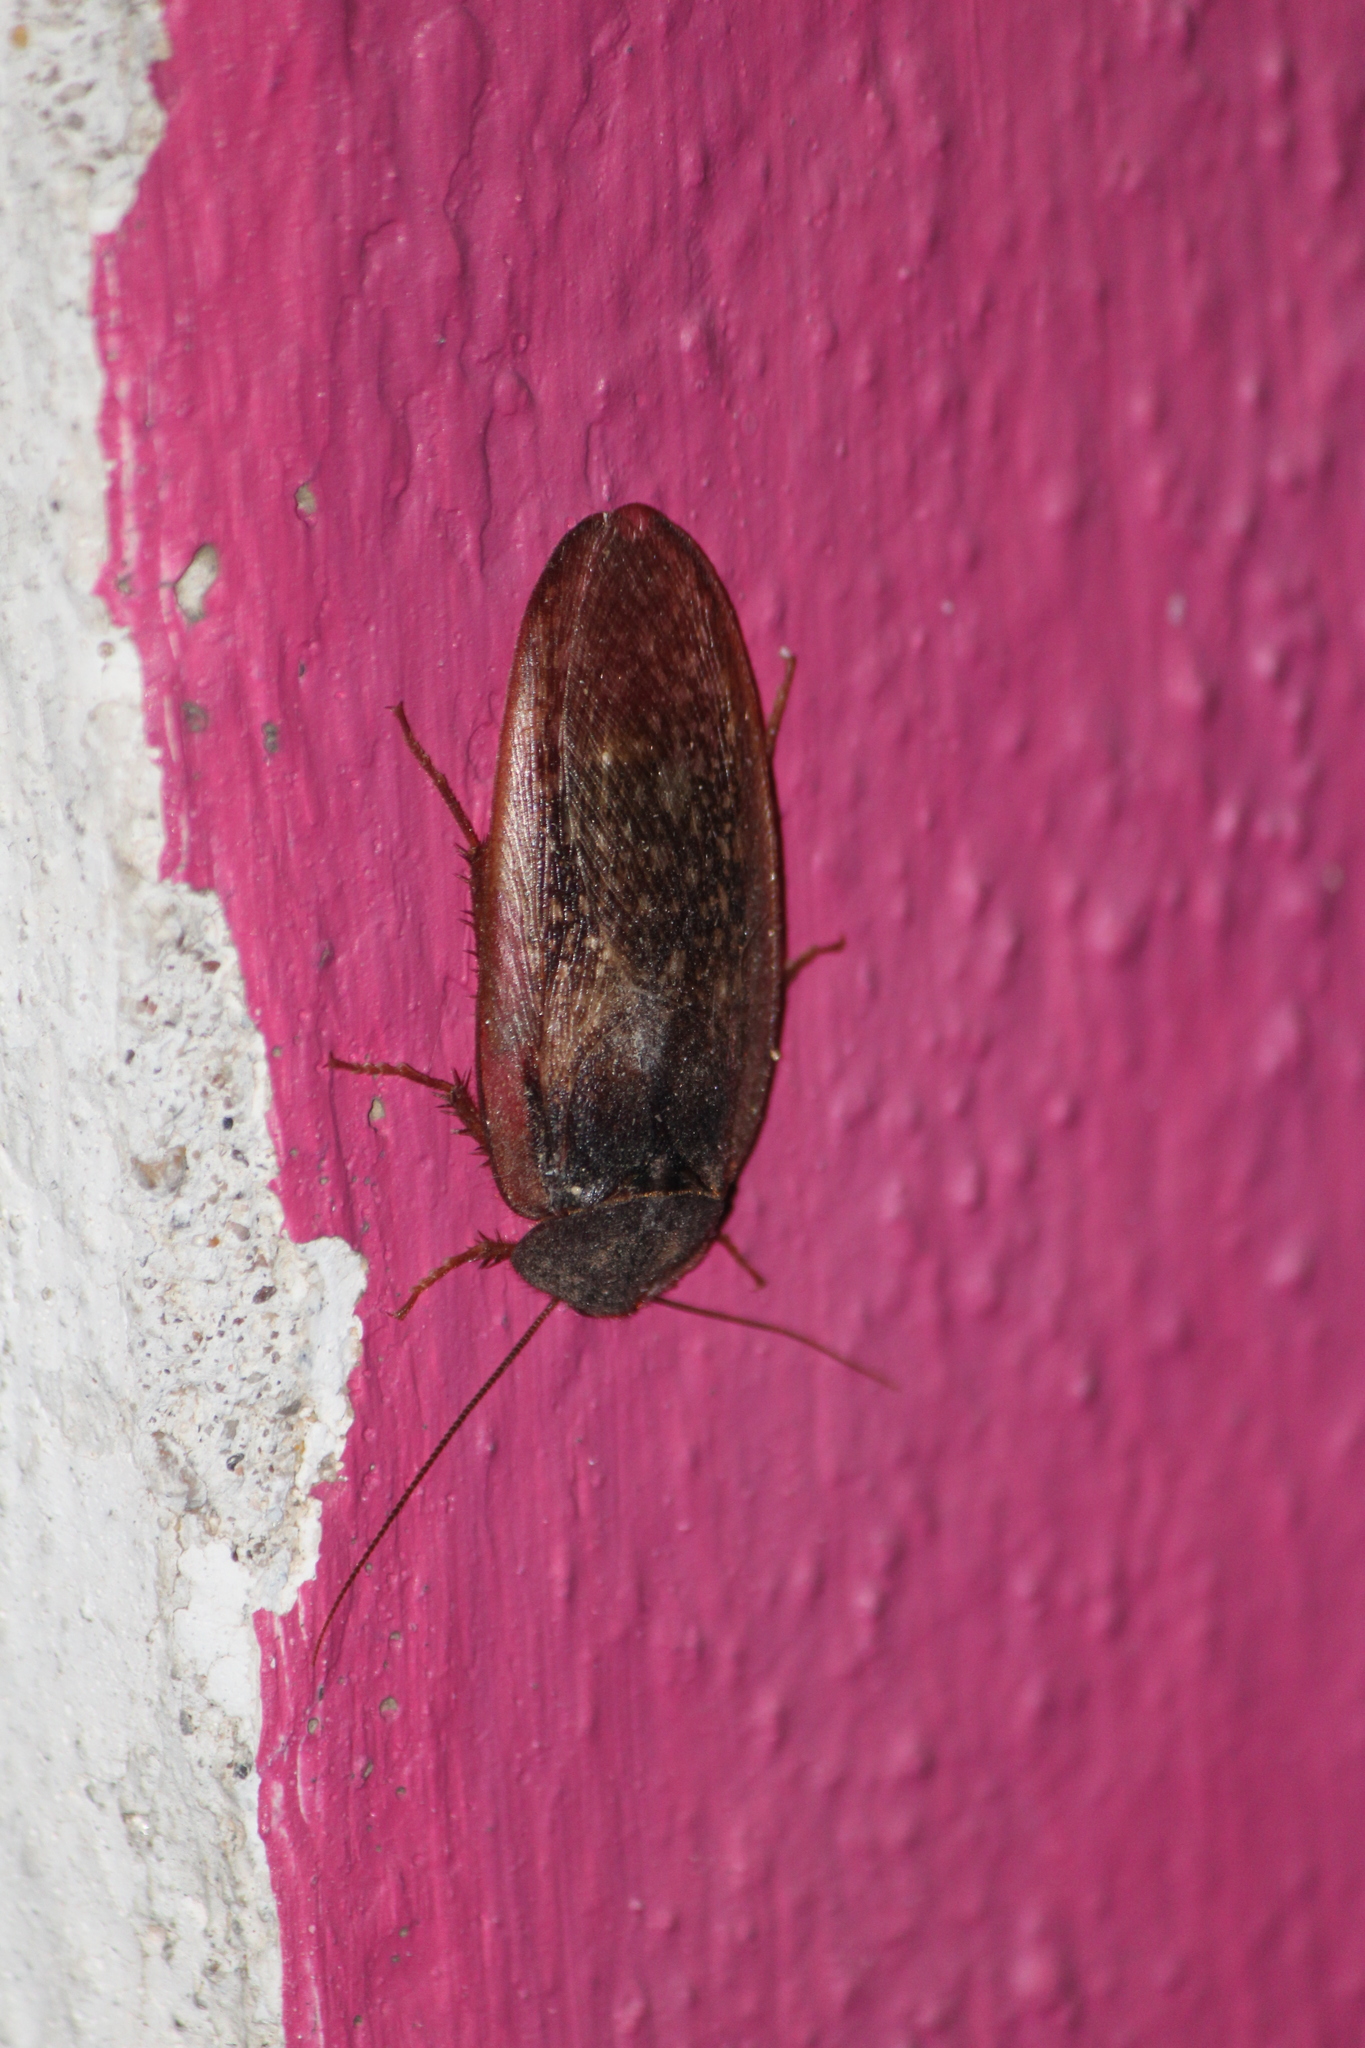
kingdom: Animalia
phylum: Arthropoda
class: Insecta
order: Blattodea
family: Corydiidae
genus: Homoeogamia
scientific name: Homoeogamia mexicana
